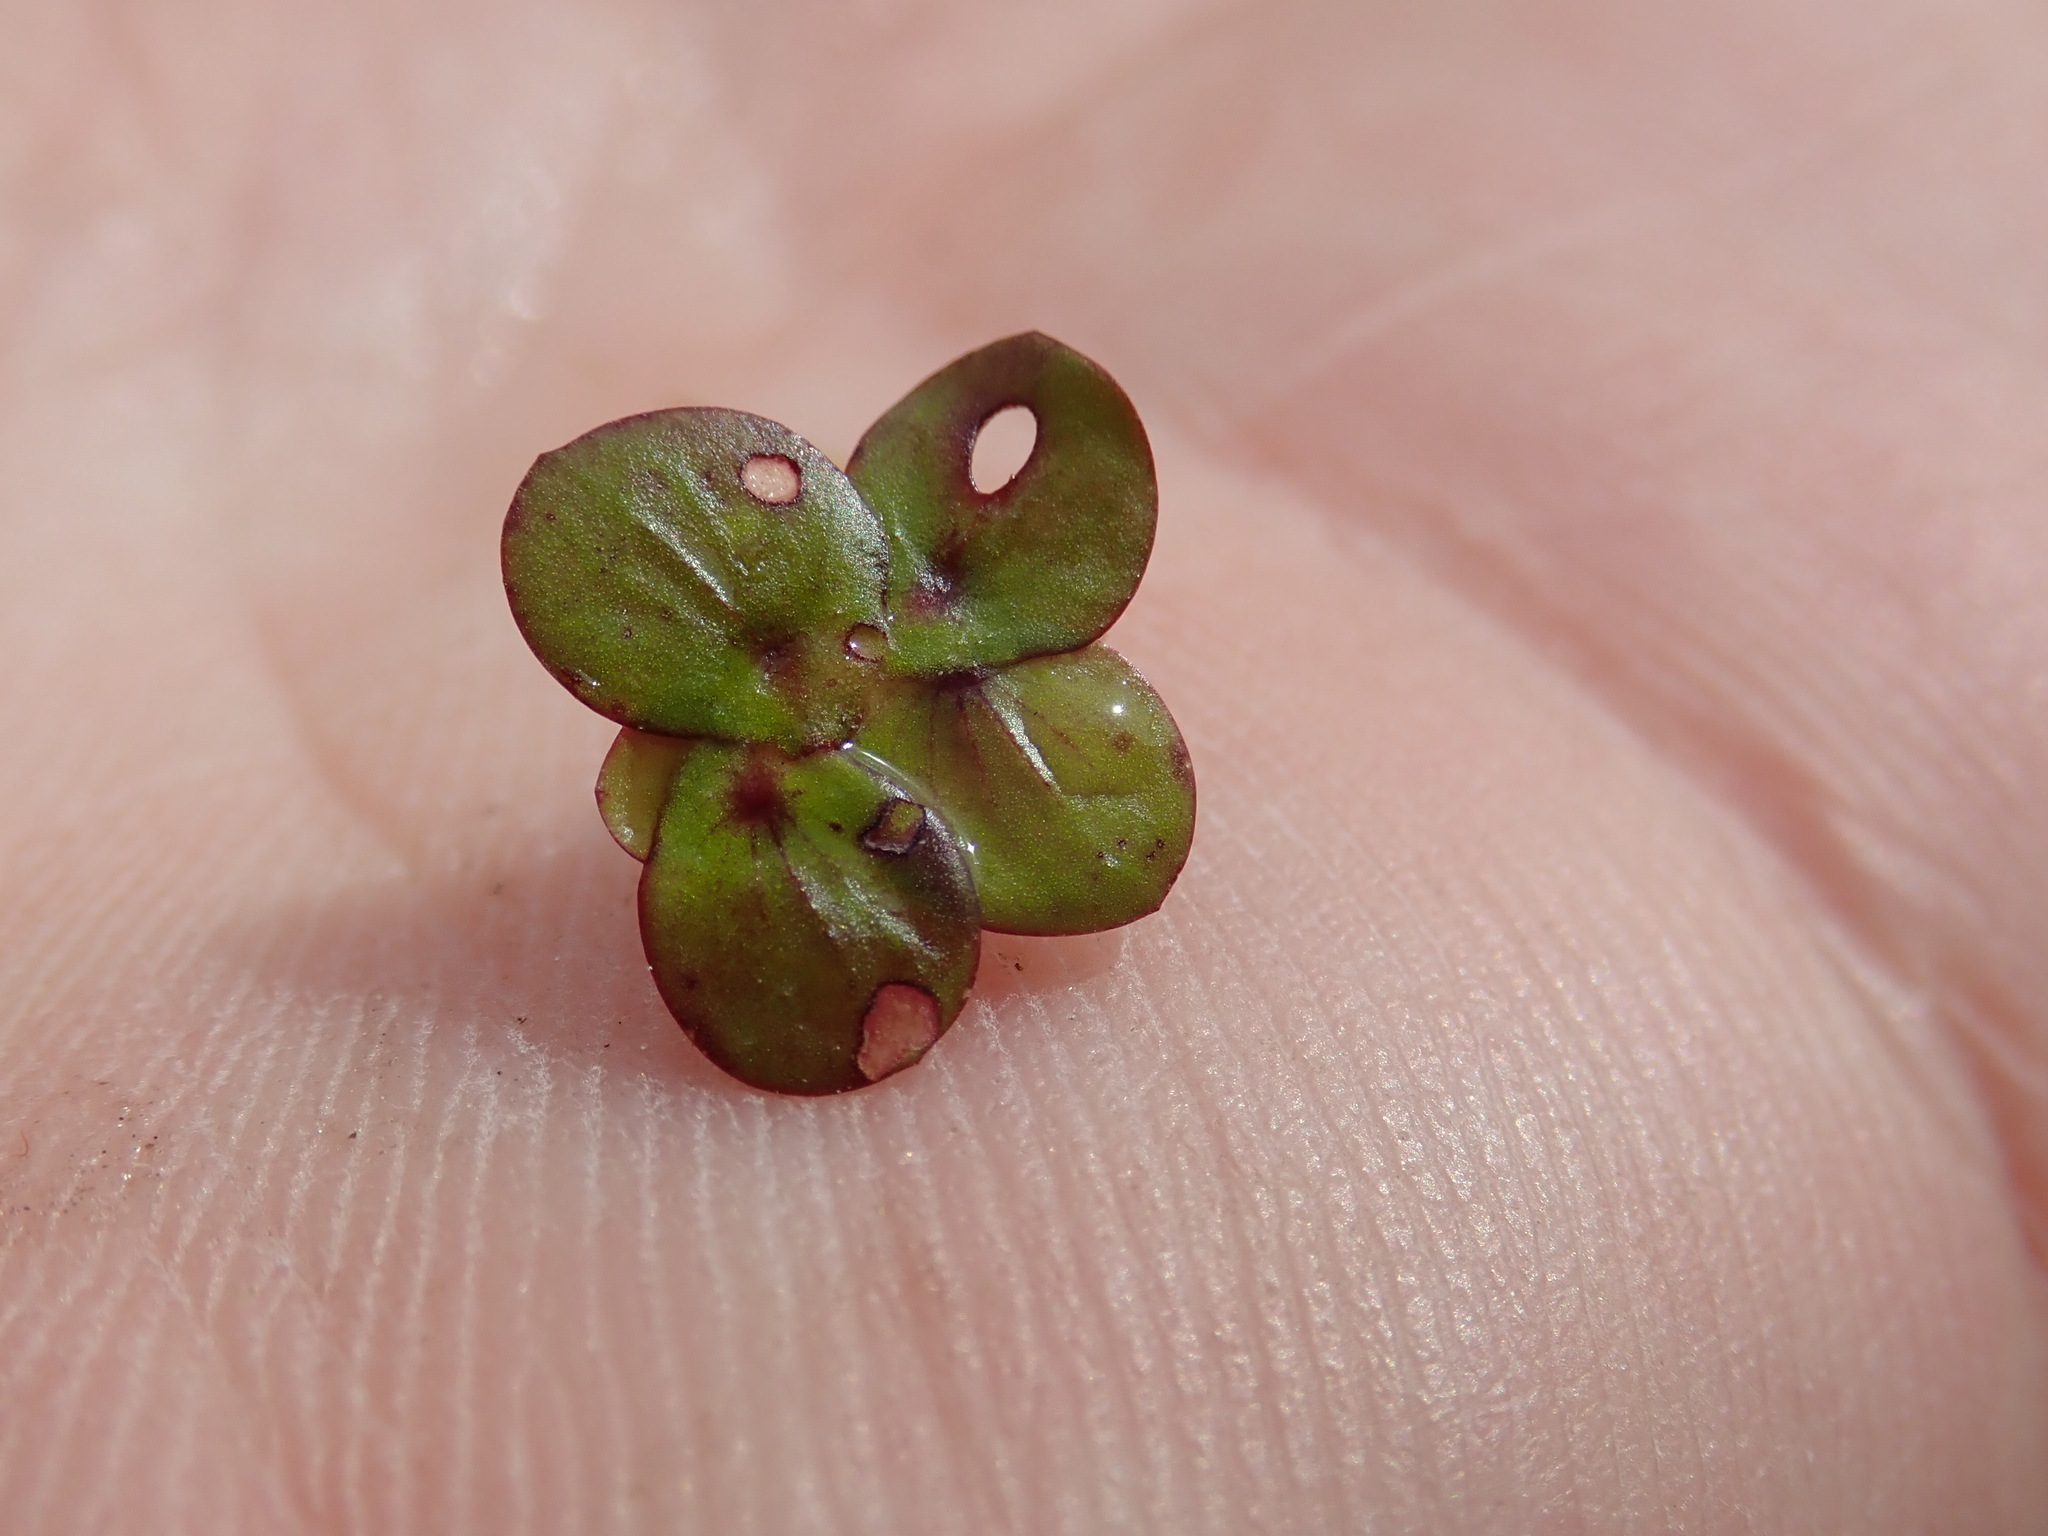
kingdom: Plantae
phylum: Tracheophyta
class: Liliopsida
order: Alismatales
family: Araceae
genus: Spirodela
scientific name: Spirodela polyrhiza
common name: Great duckweed
